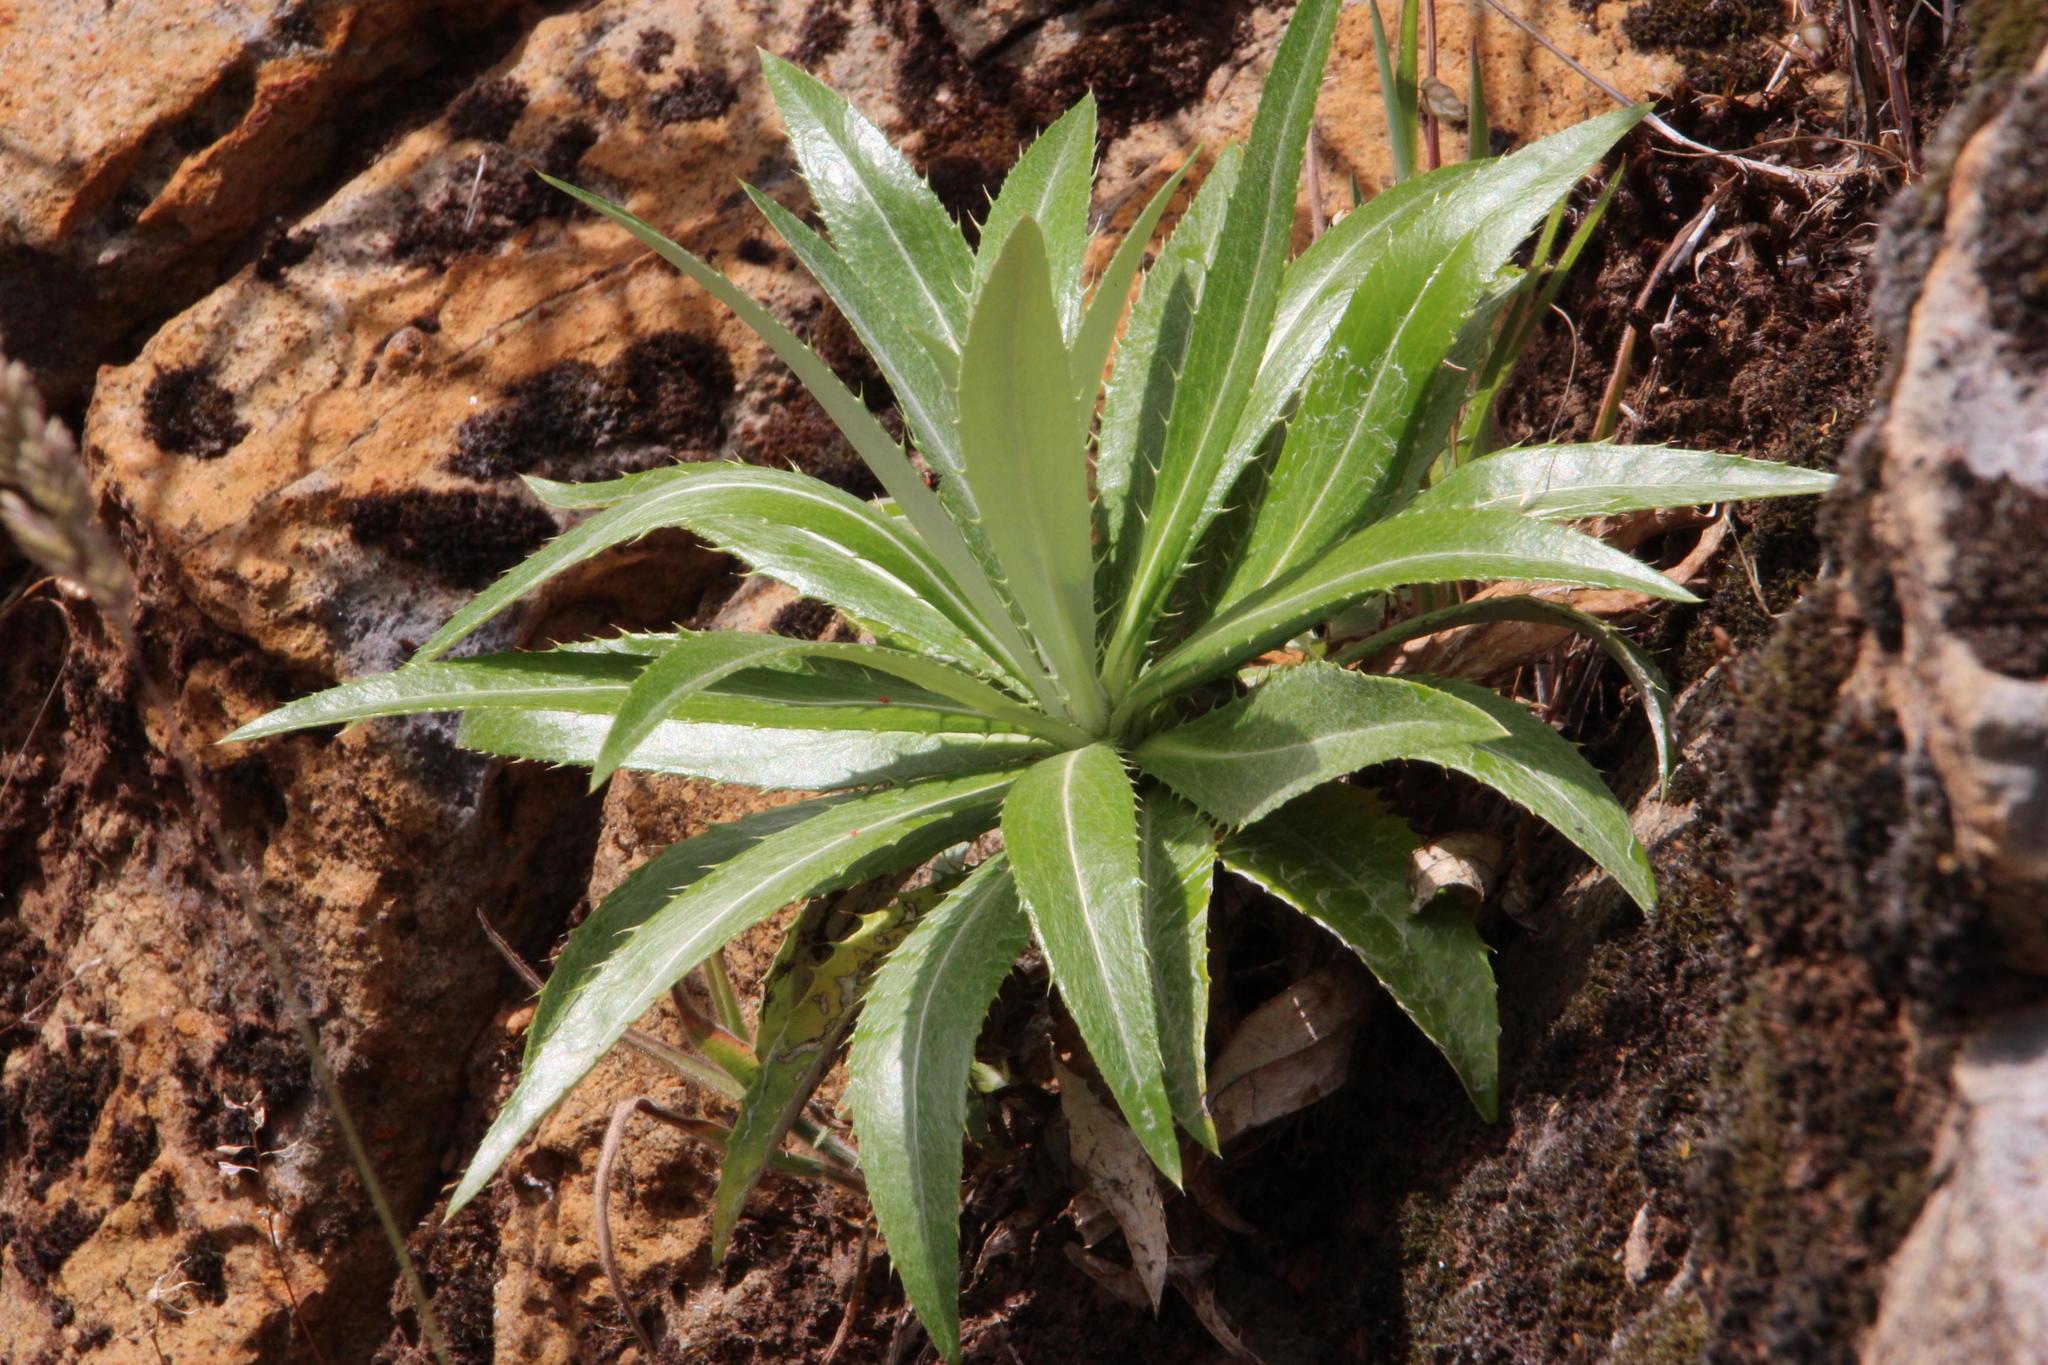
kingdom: Plantae
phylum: Tracheophyta
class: Magnoliopsida
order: Asterales
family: Asteraceae
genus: Carlina
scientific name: Carlina salicifolia
